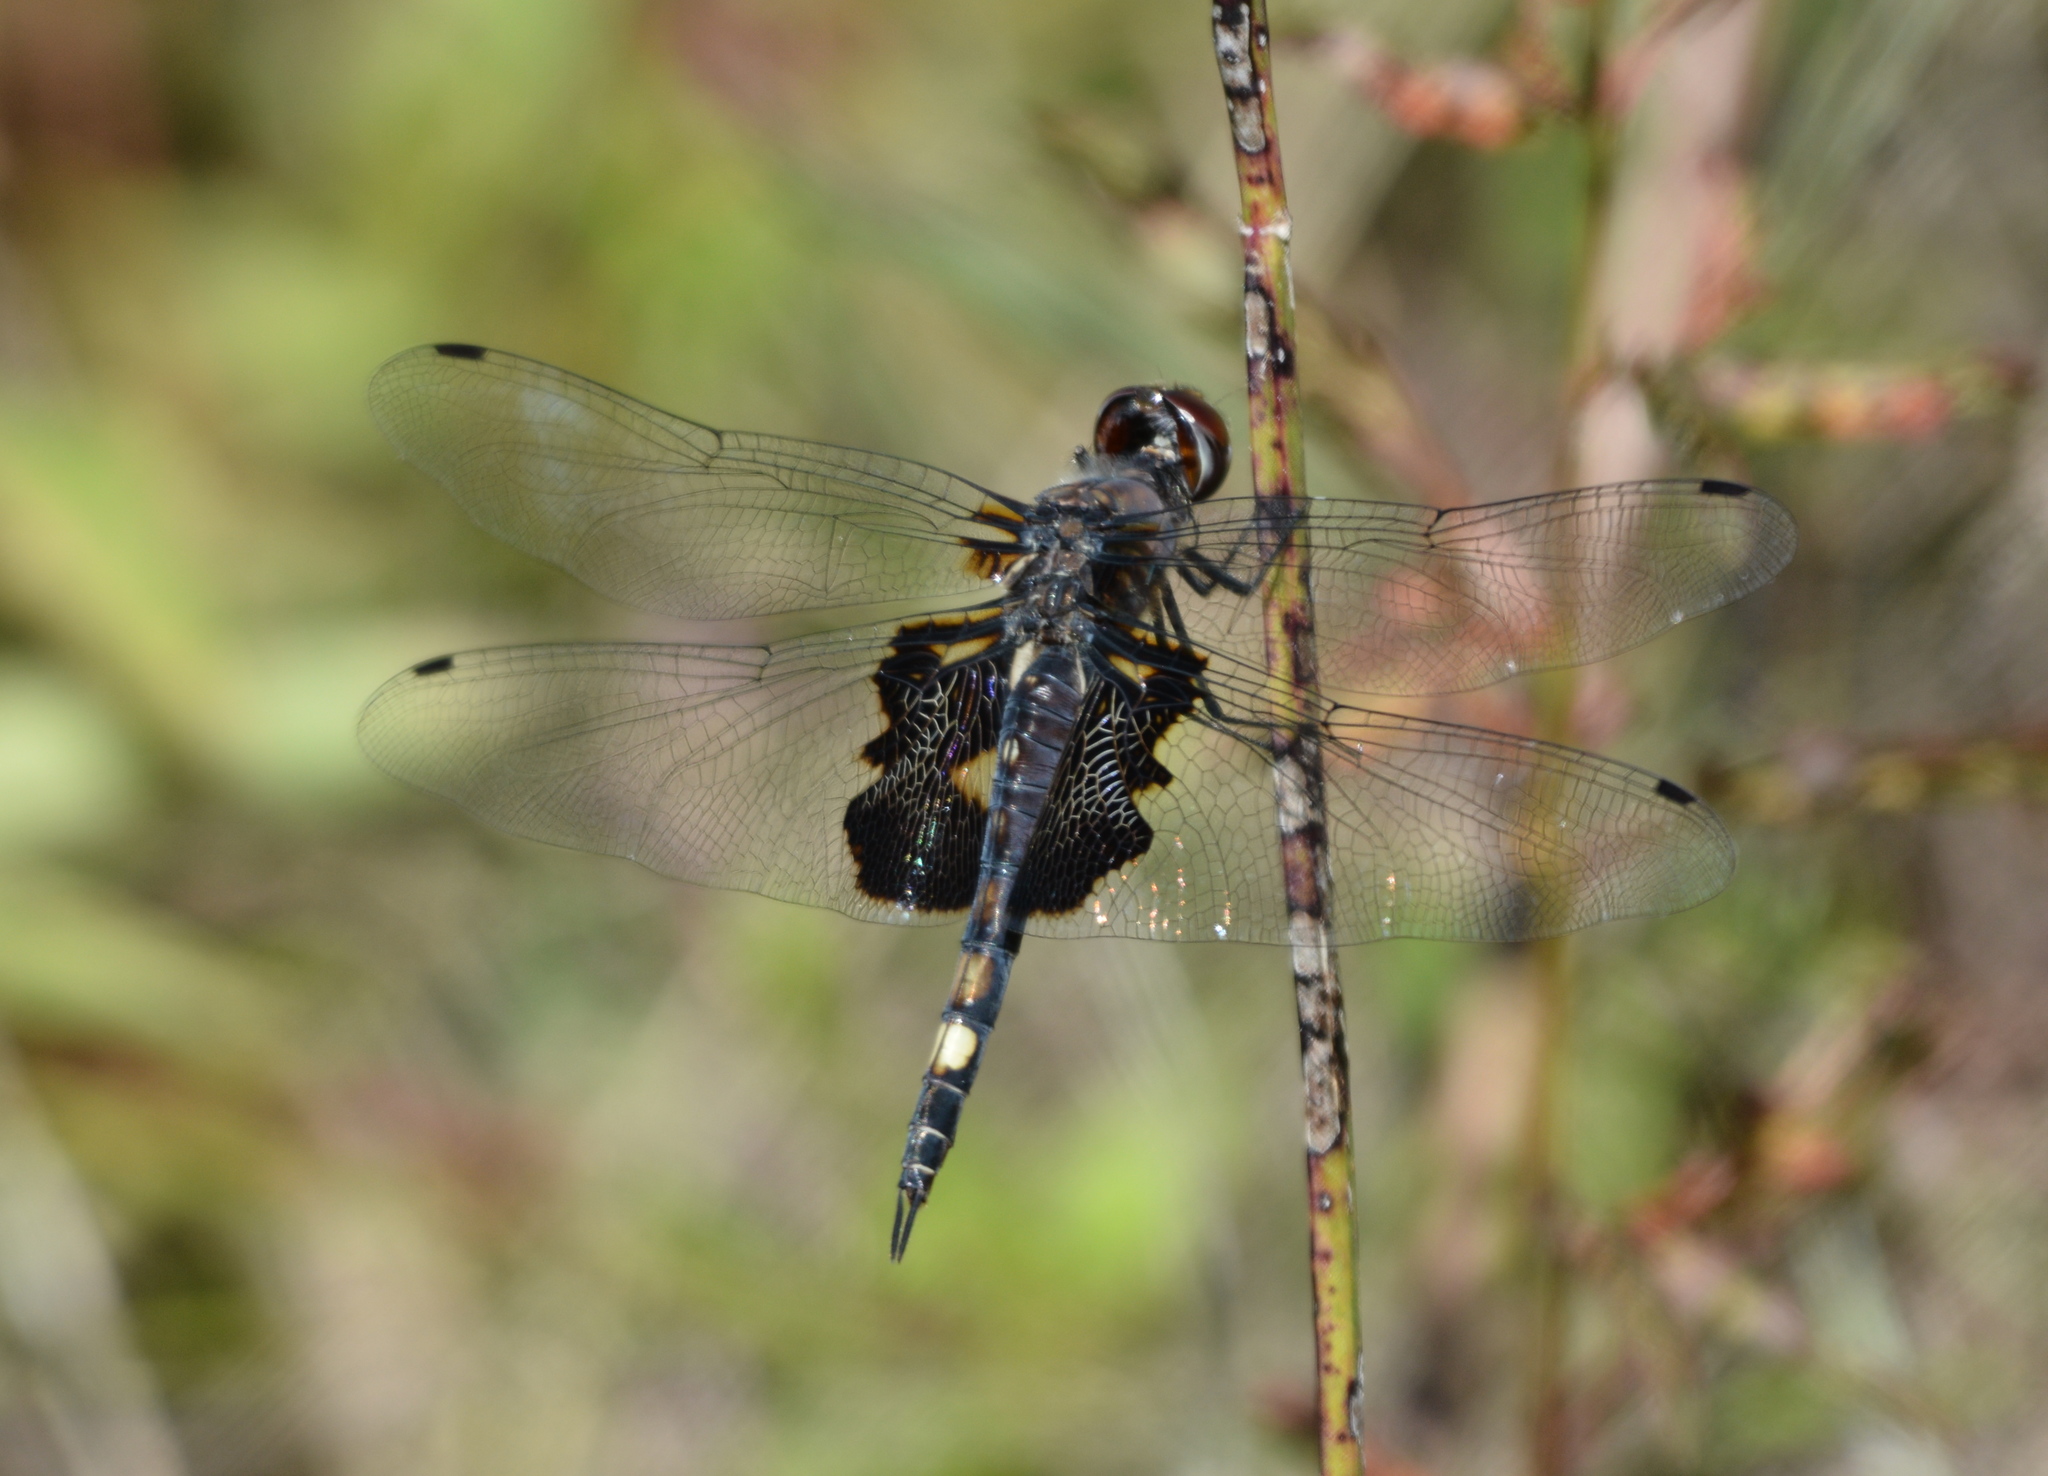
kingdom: Animalia
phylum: Arthropoda
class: Insecta
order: Odonata
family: Libellulidae
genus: Tramea
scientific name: Tramea lacerata
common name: Black saddlebags
